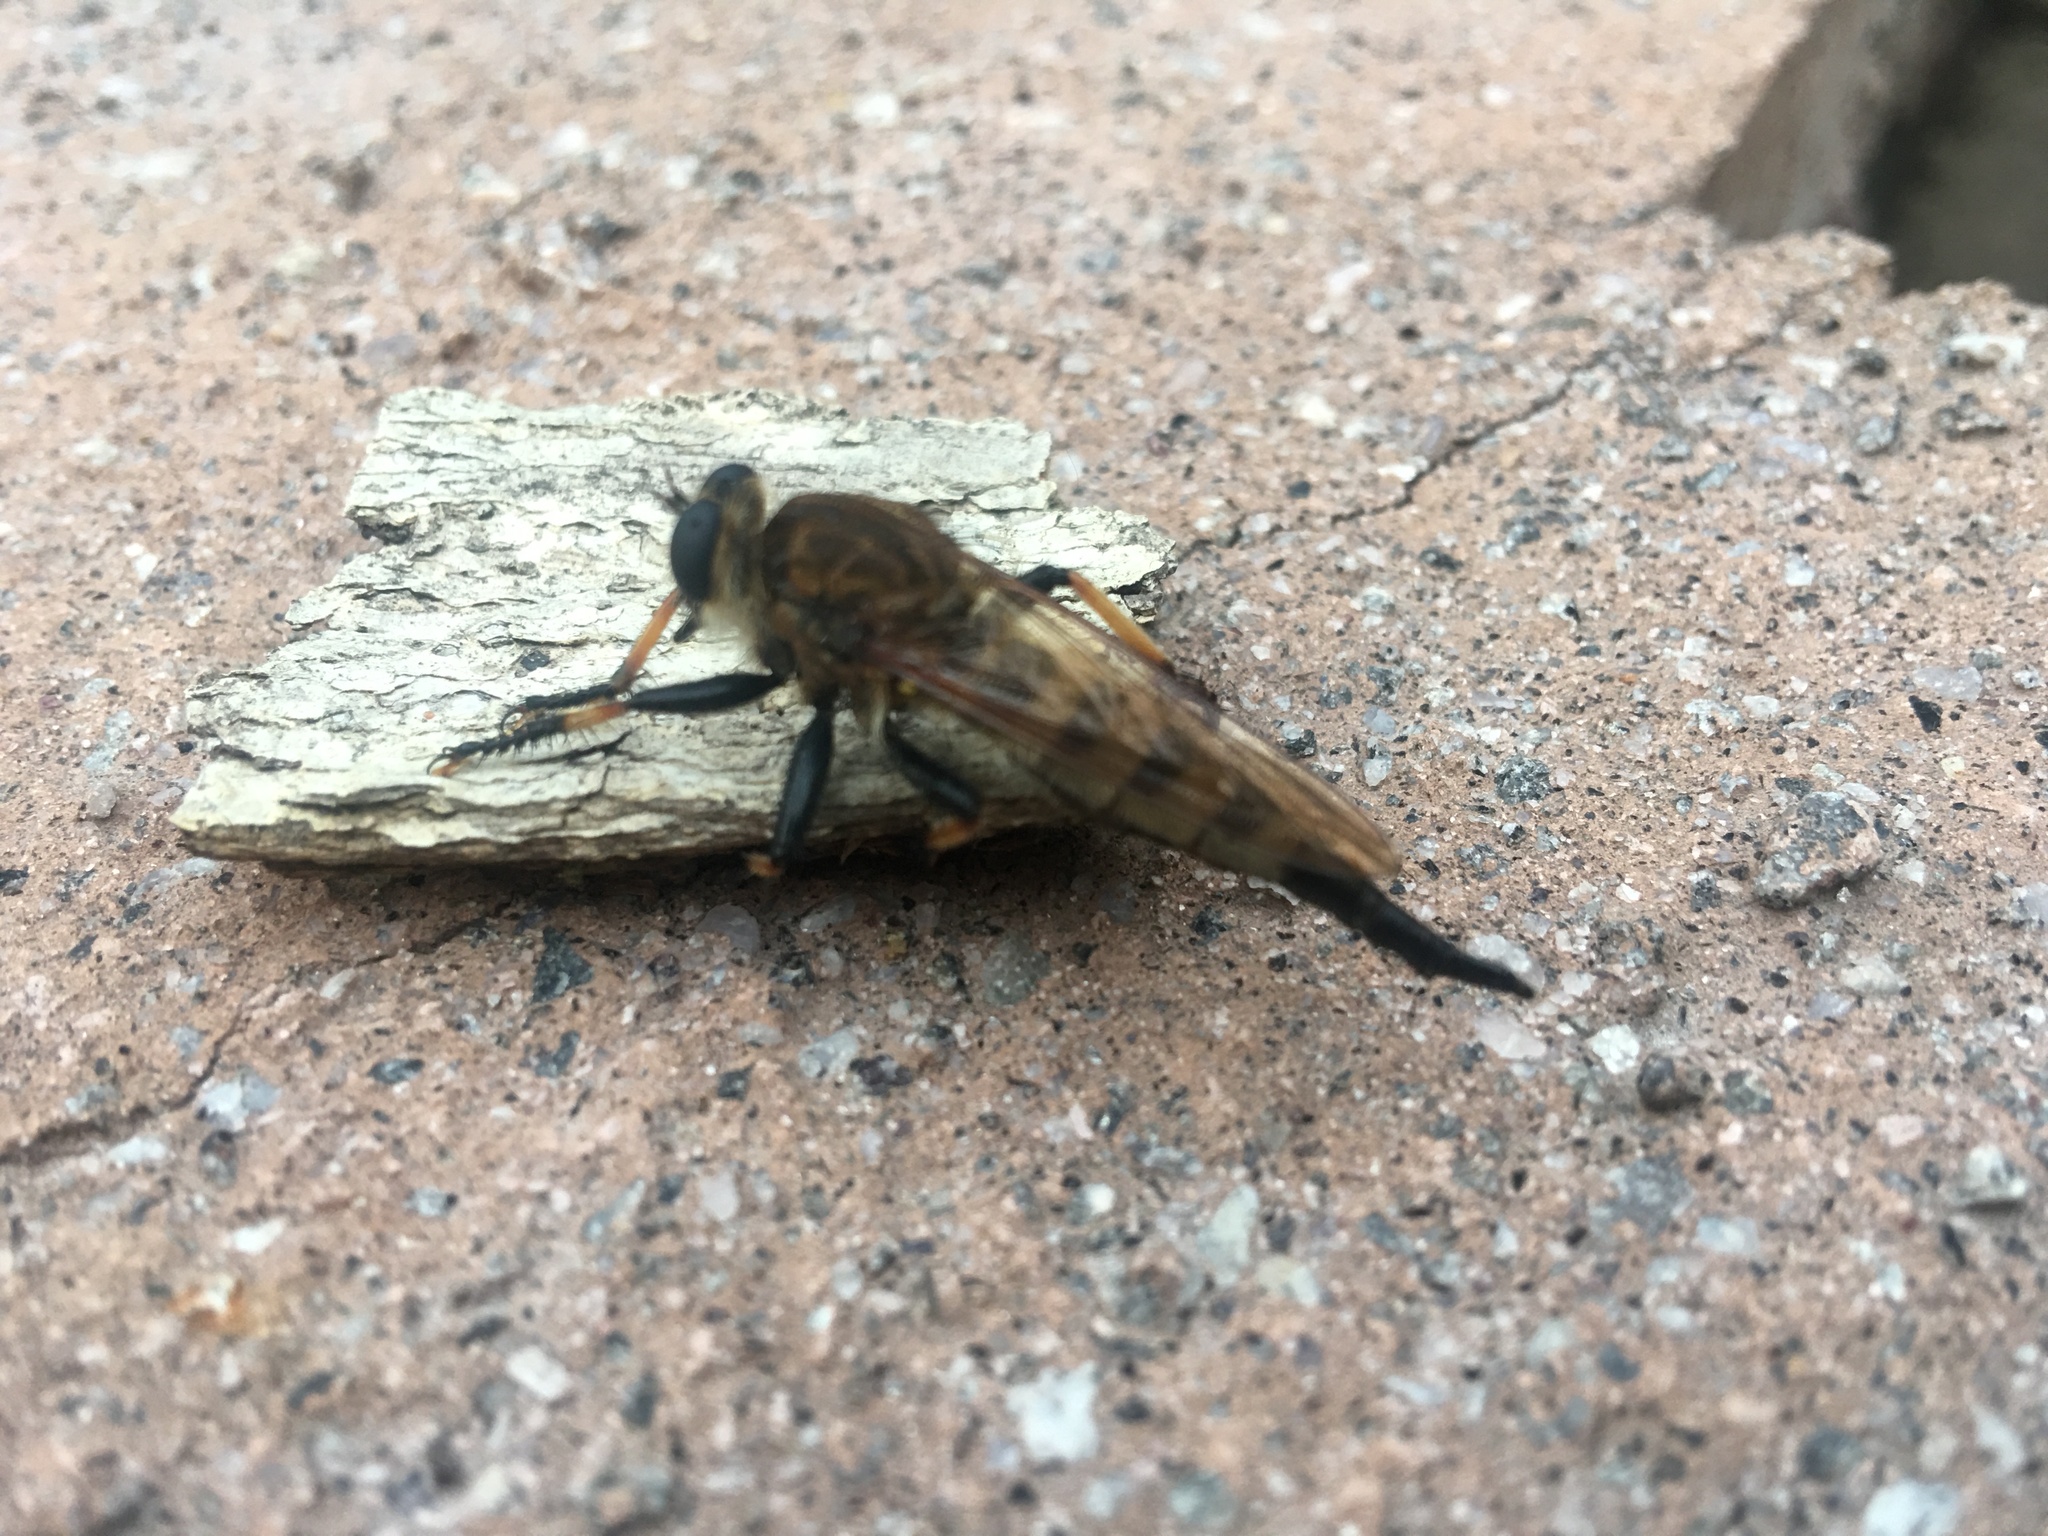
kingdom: Animalia
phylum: Arthropoda
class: Insecta
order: Diptera
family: Asilidae
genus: Promachus
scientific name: Promachus rufipes
